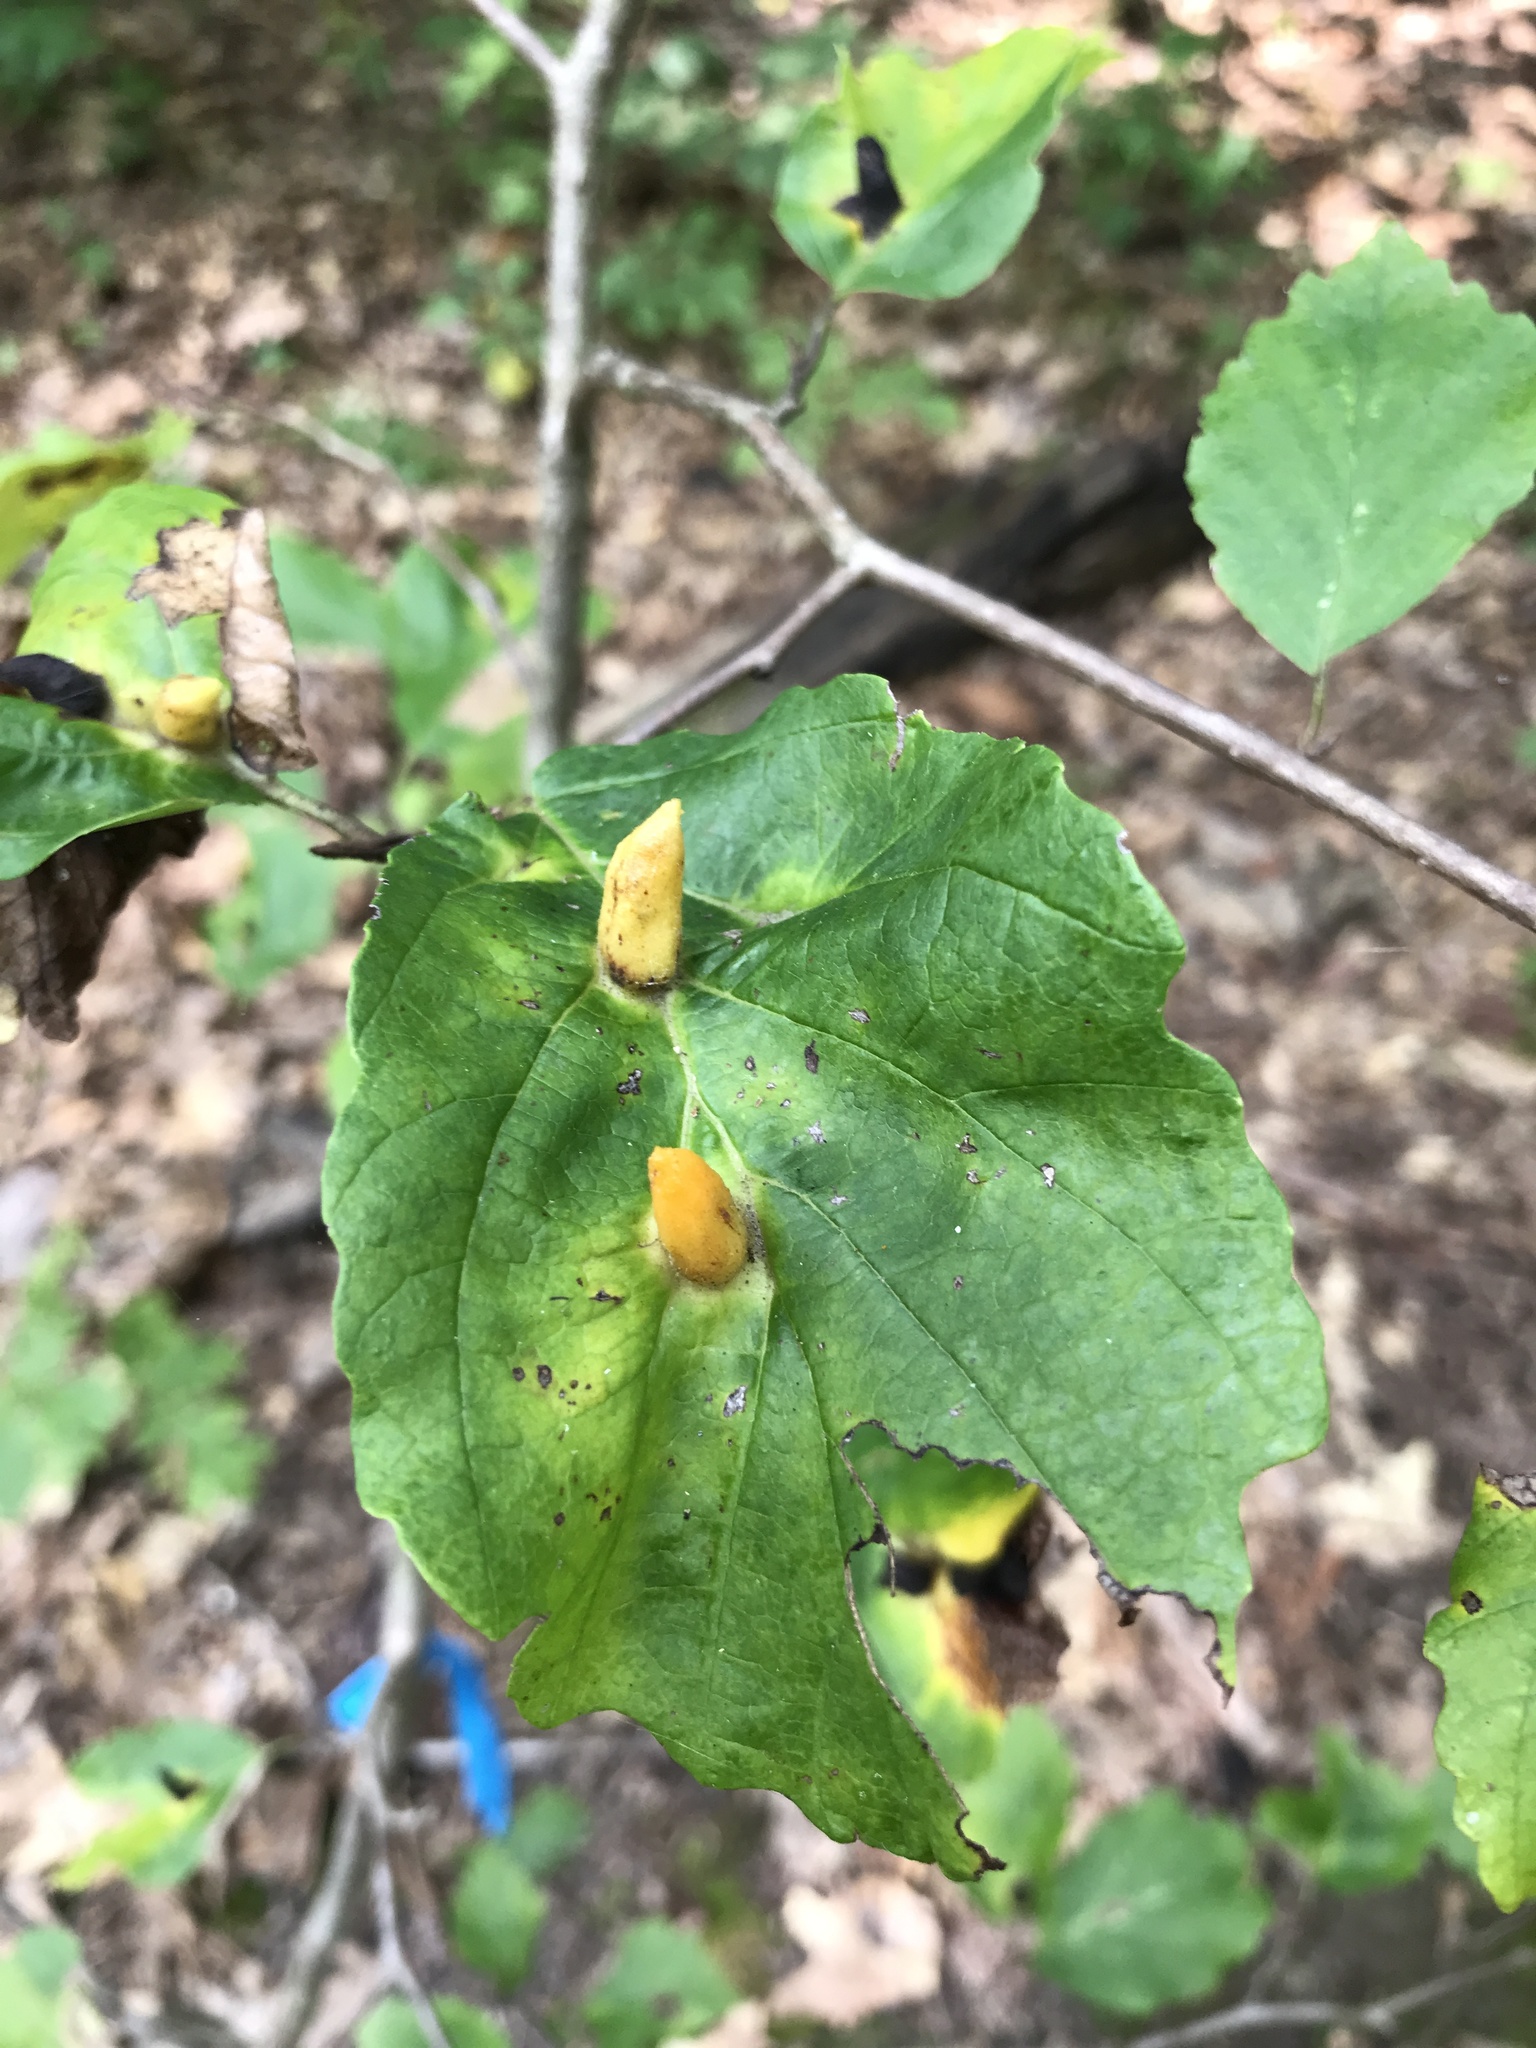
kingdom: Animalia
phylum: Arthropoda
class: Insecta
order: Hemiptera
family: Aphididae
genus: Hormaphis
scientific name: Hormaphis hamamelidis
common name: Witch-hazel cone gall aphid
